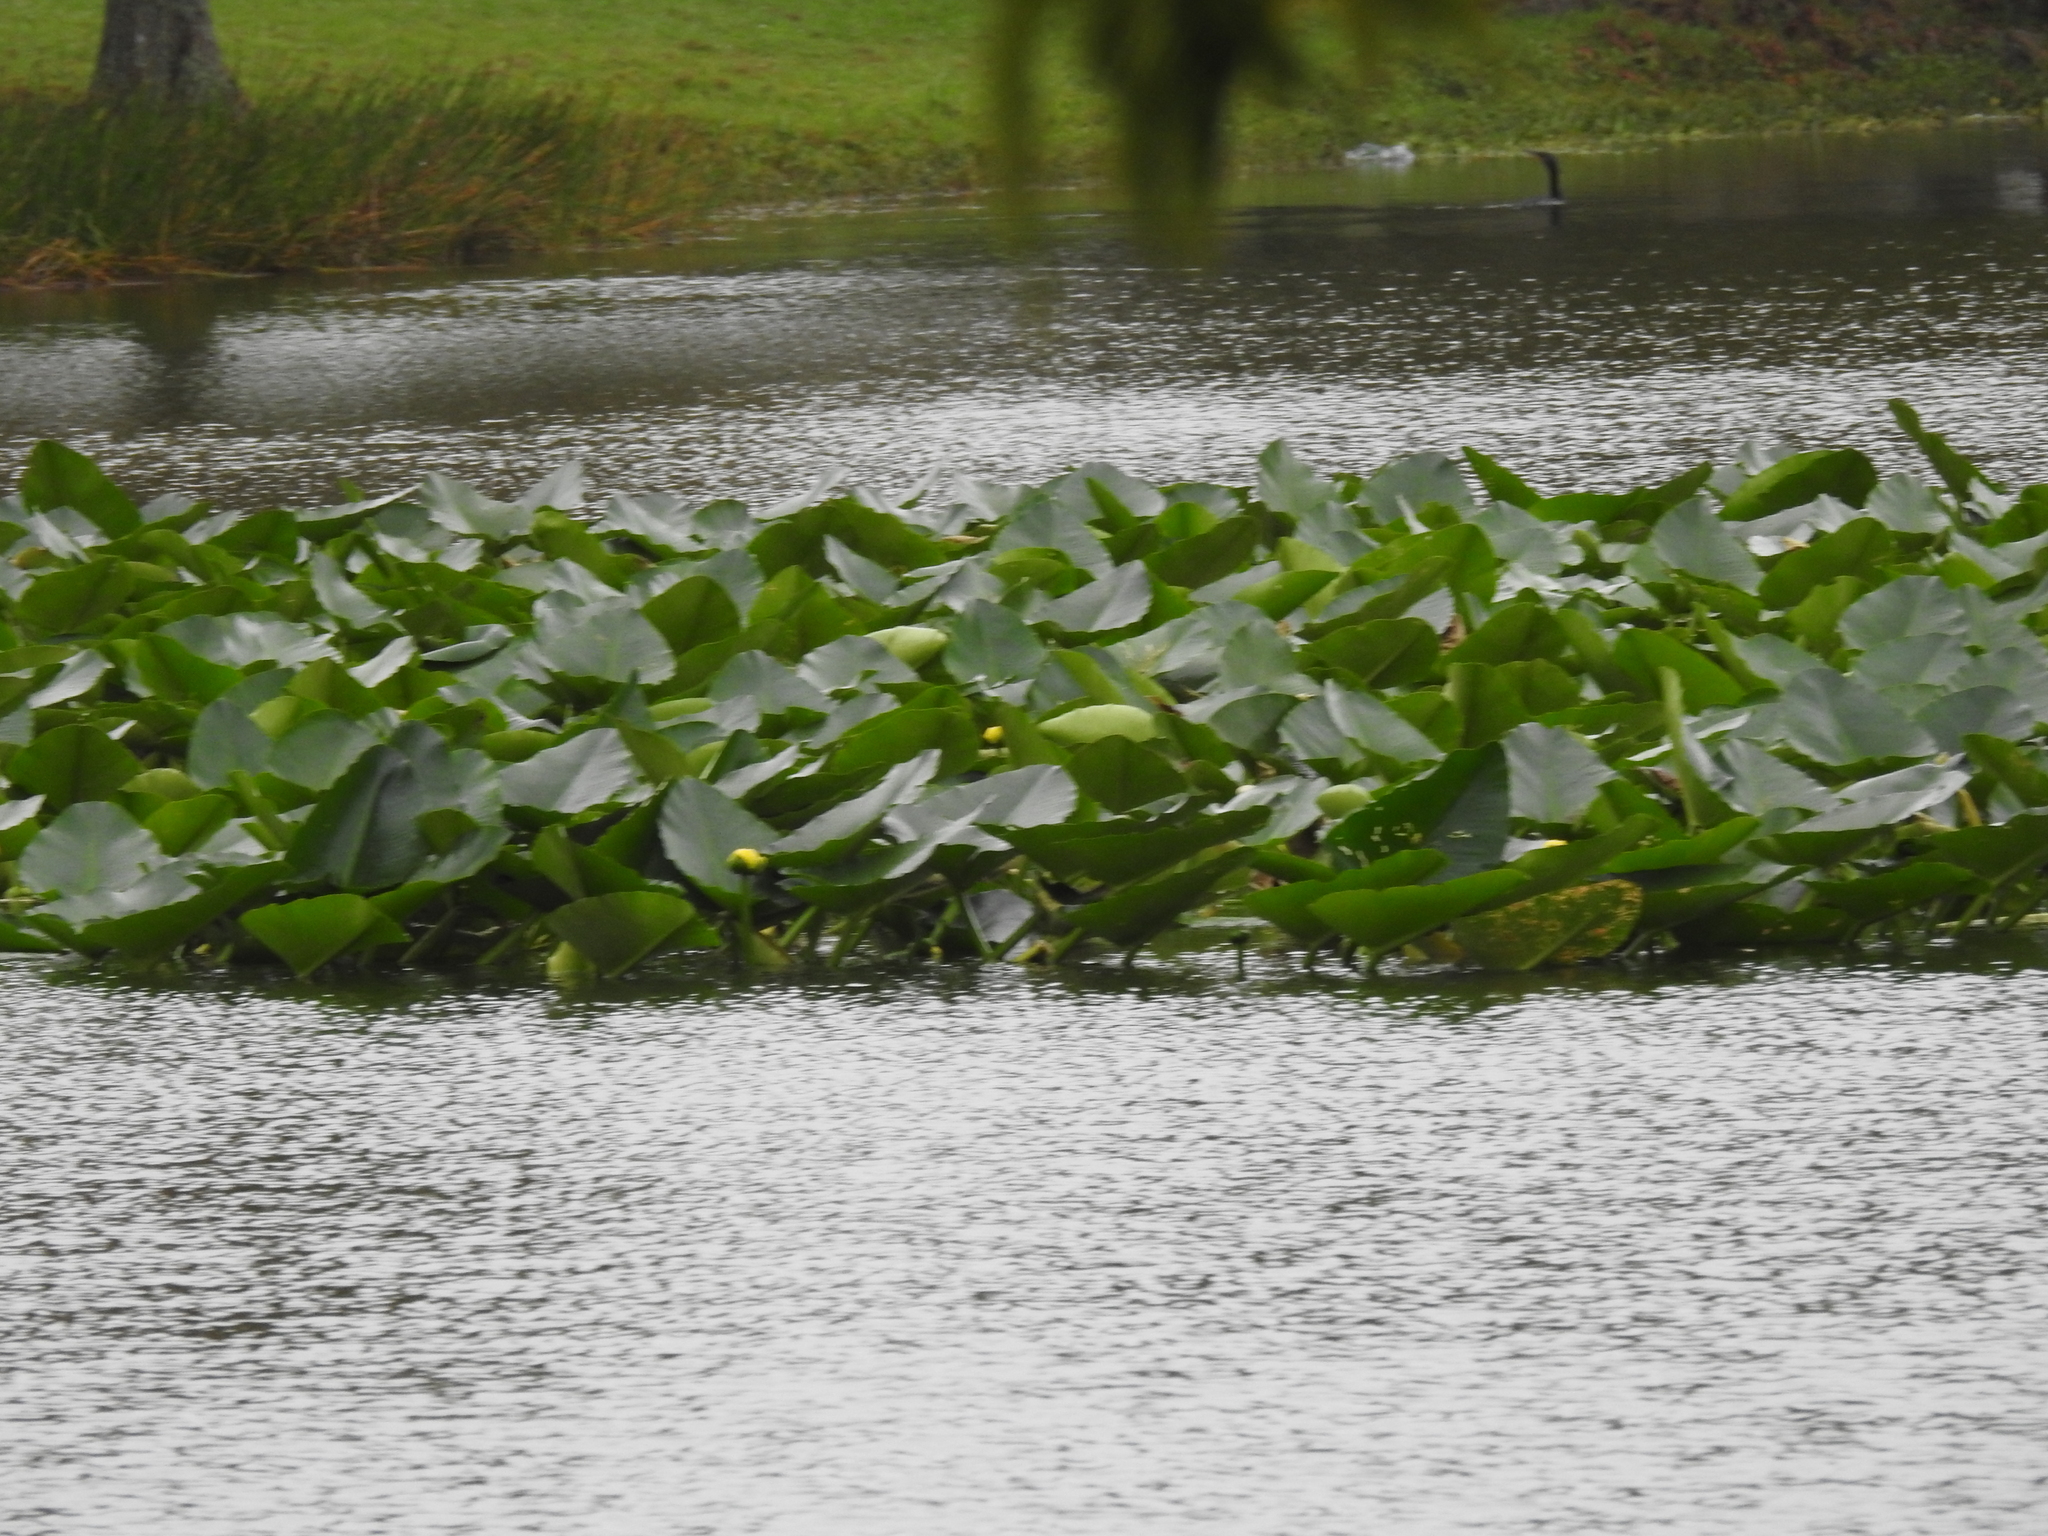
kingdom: Plantae
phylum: Tracheophyta
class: Magnoliopsida
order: Nymphaeales
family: Nymphaeaceae
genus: Nuphar
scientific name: Nuphar advena
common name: Spatter-dock
